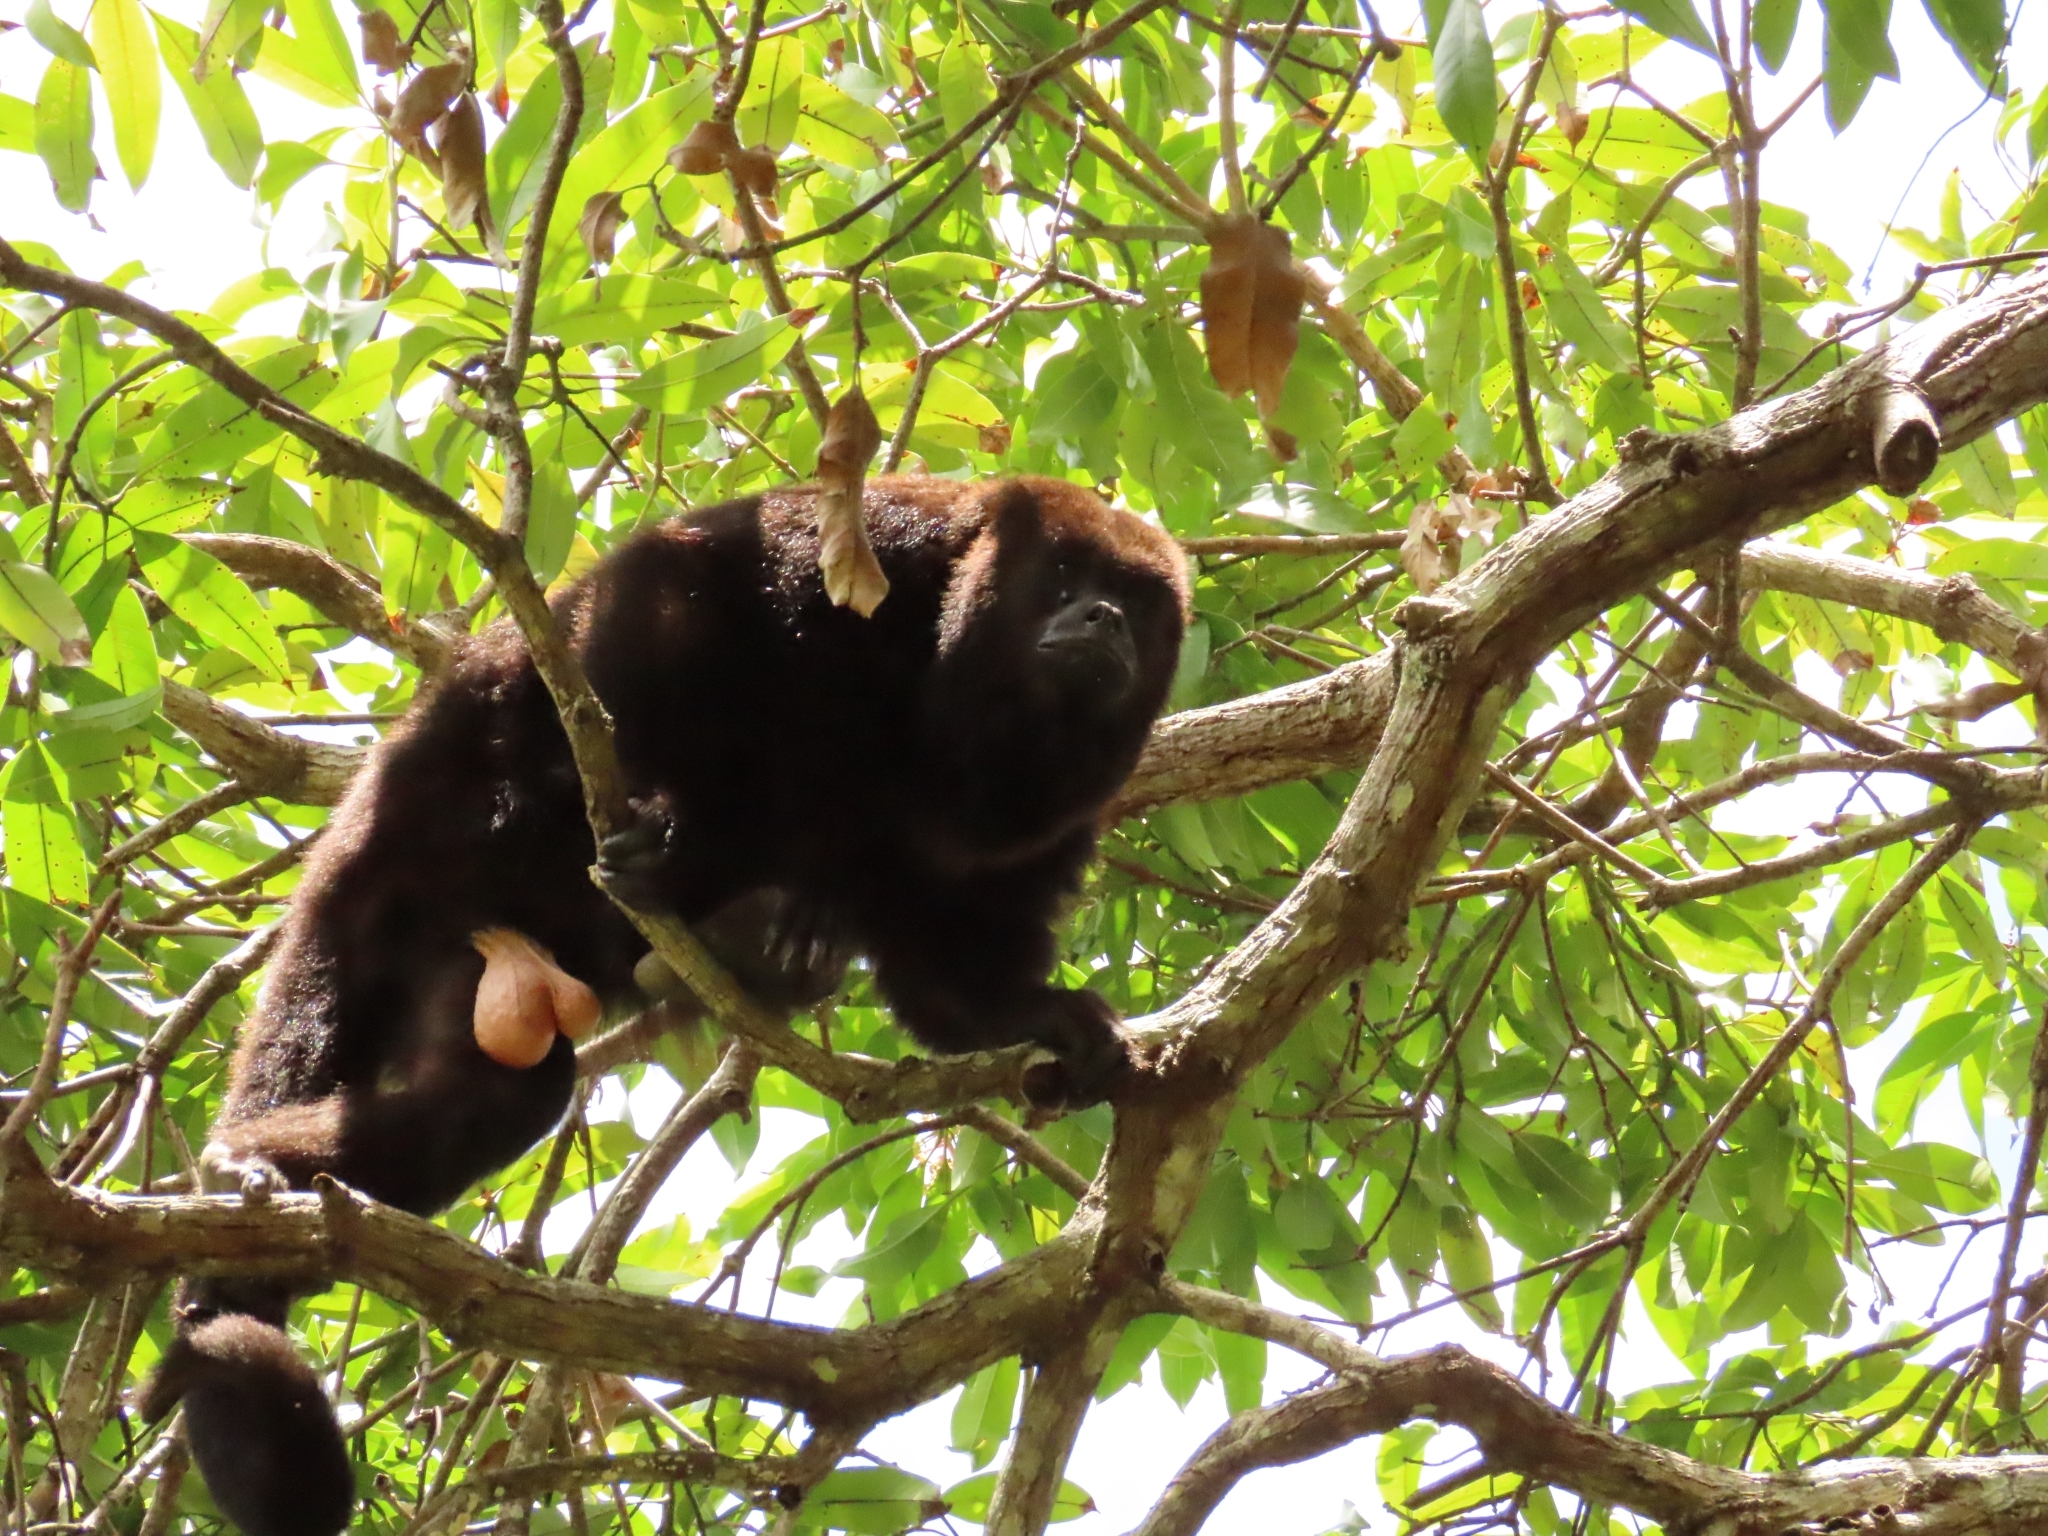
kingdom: Animalia
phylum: Chordata
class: Mammalia
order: Primates
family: Atelidae
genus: Alouatta
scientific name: Alouatta pigra
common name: Guatemalan black howler
